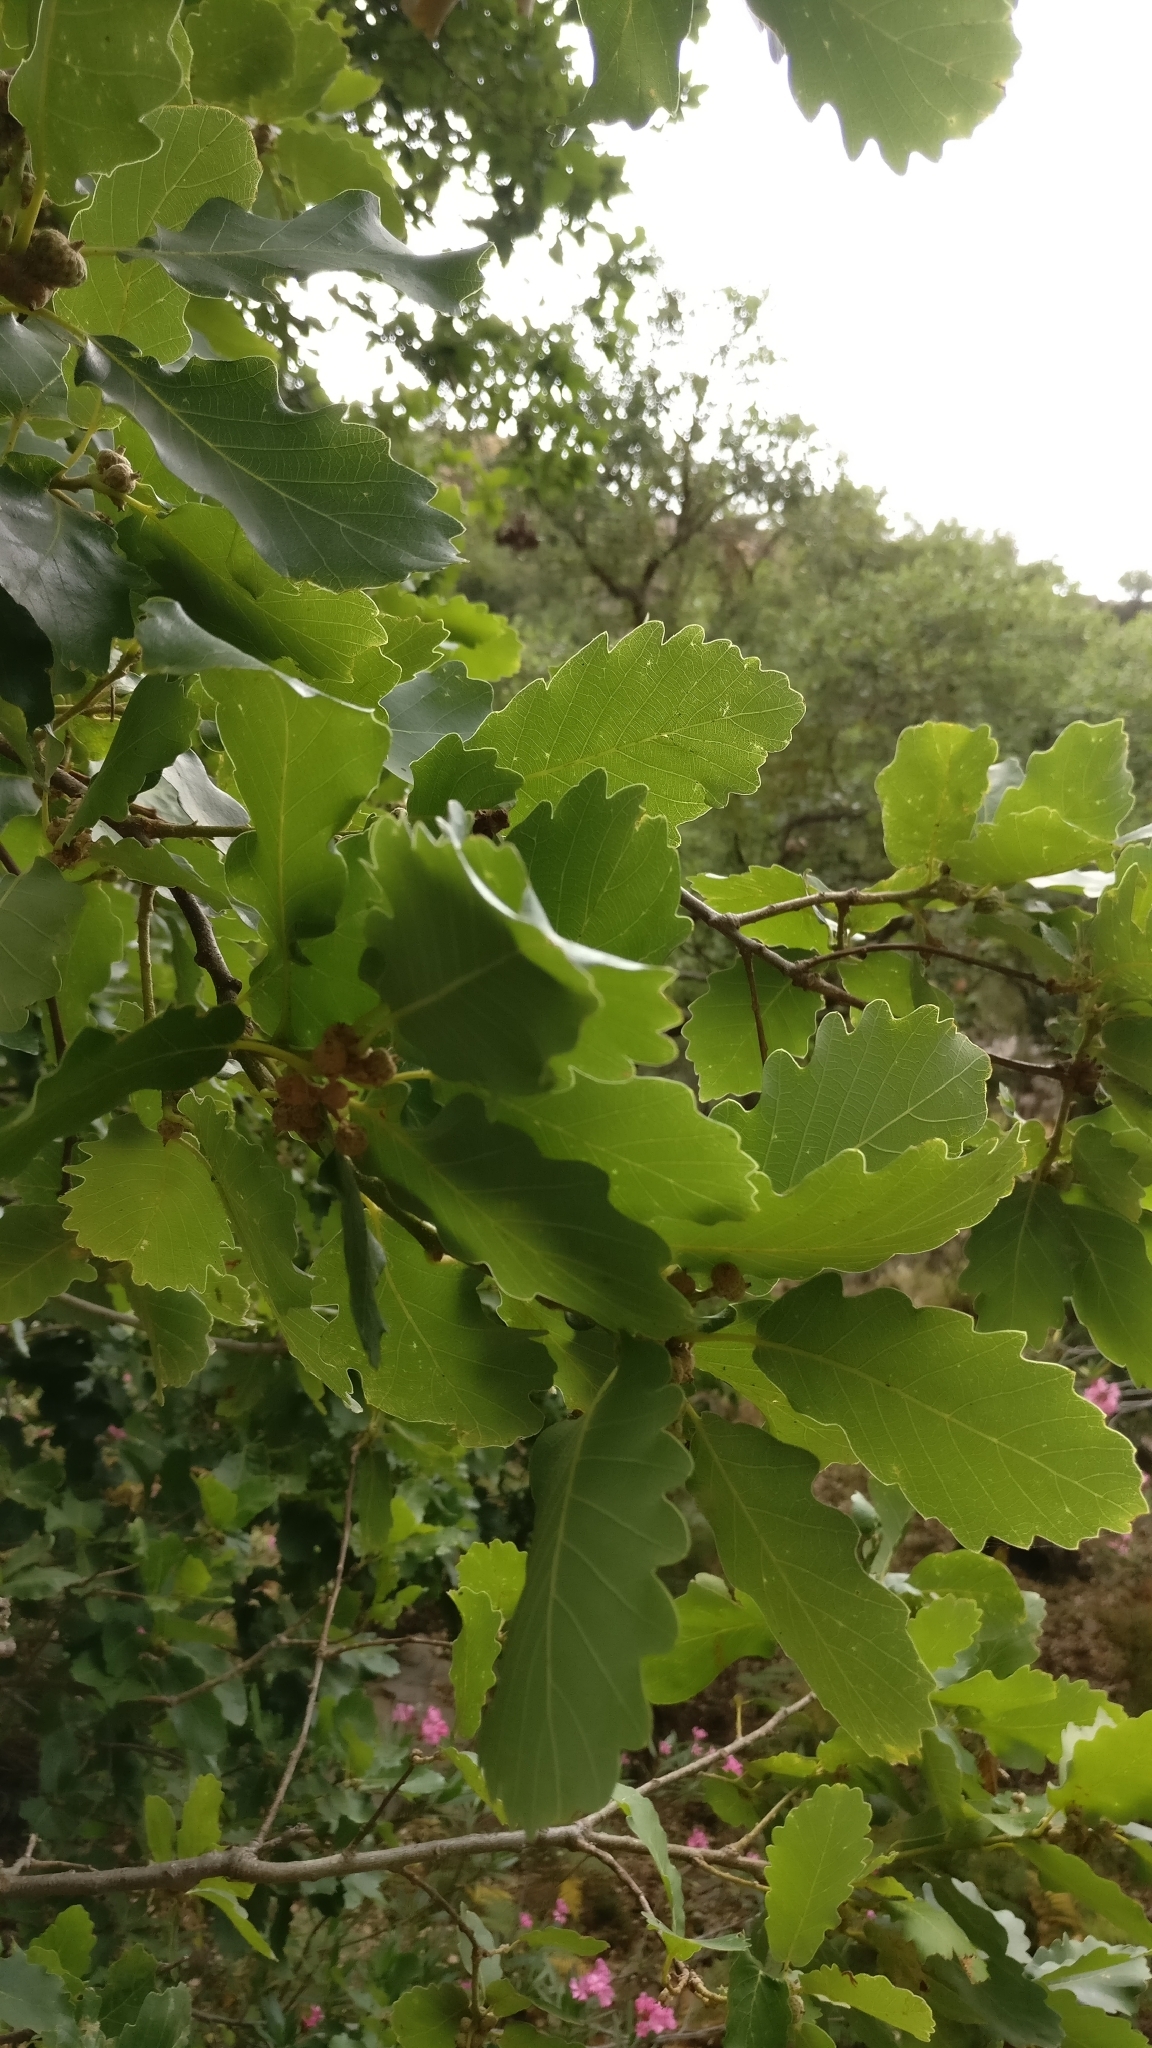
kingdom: Plantae
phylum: Tracheophyta
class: Magnoliopsida
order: Fagales
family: Fagaceae
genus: Quercus
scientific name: Quercus canariensis
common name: Algerian oak
